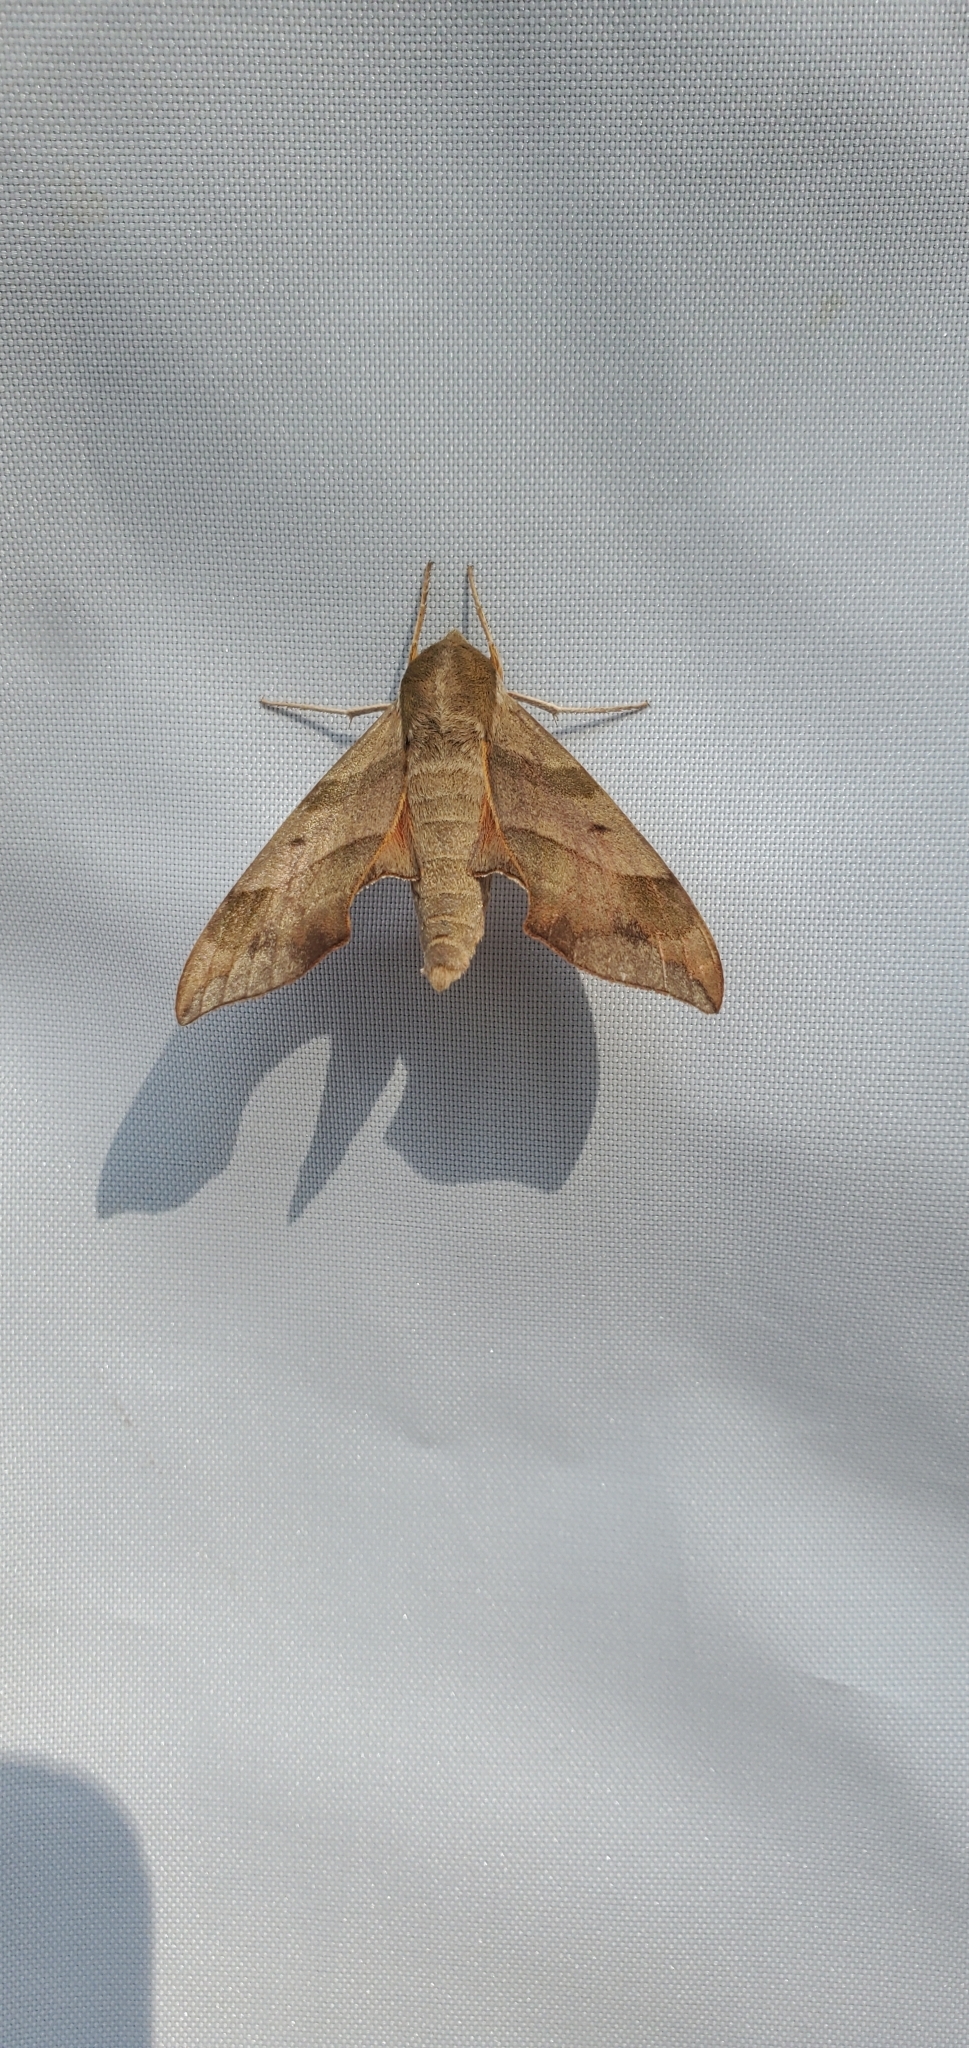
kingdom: Animalia
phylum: Arthropoda
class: Insecta
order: Lepidoptera
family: Sphingidae
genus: Darapsa
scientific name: Darapsa myron
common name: Hog sphinx
